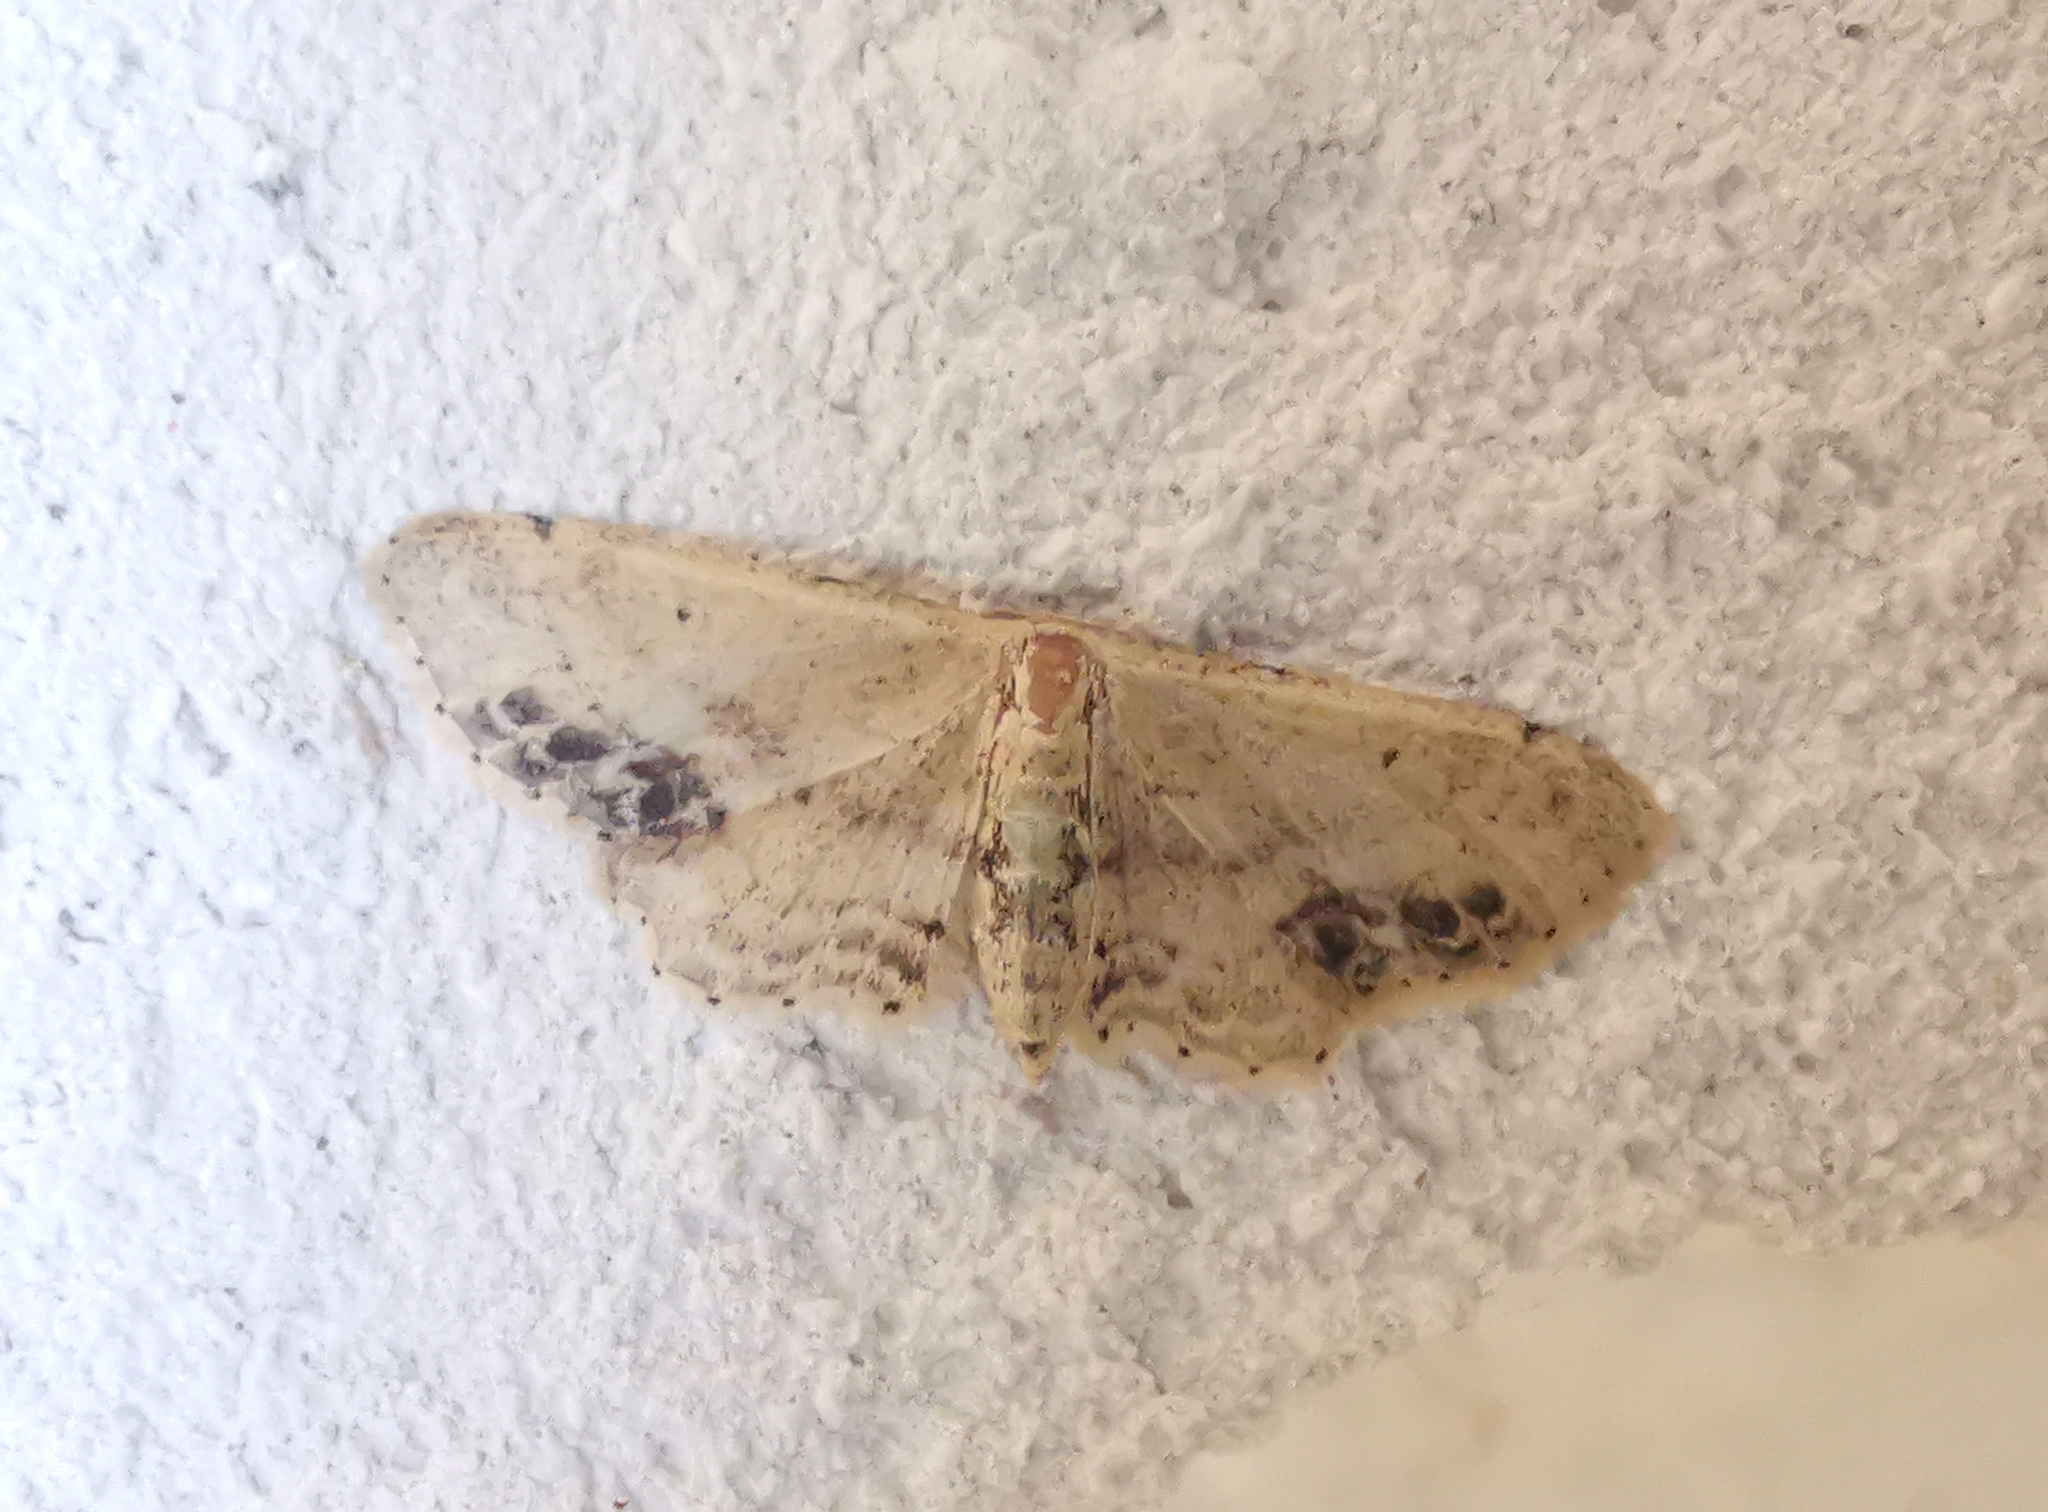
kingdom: Animalia
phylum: Arthropoda
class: Insecta
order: Lepidoptera
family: Geometridae
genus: Idaea
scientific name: Idaea dimidiata
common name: Single-dotted wave
